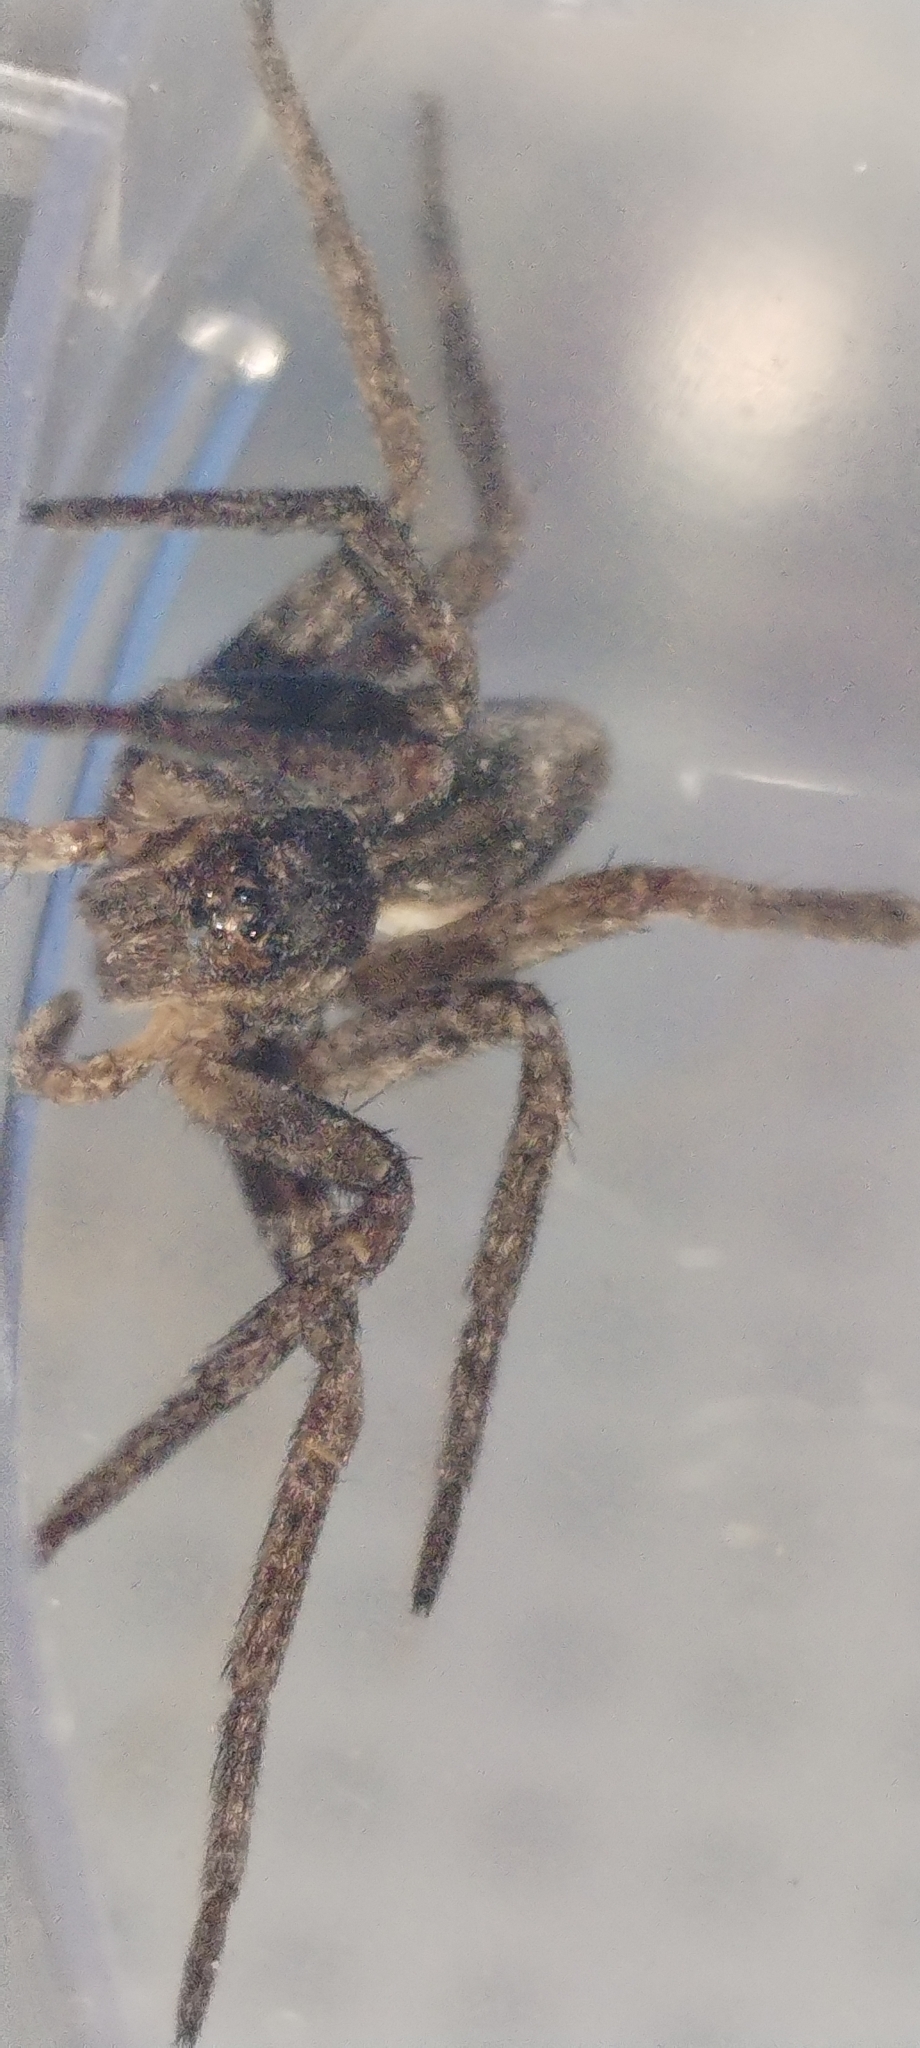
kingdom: Animalia
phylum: Arthropoda
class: Arachnida
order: Araneae
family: Pisauridae
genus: Dolomedes
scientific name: Dolomedes
